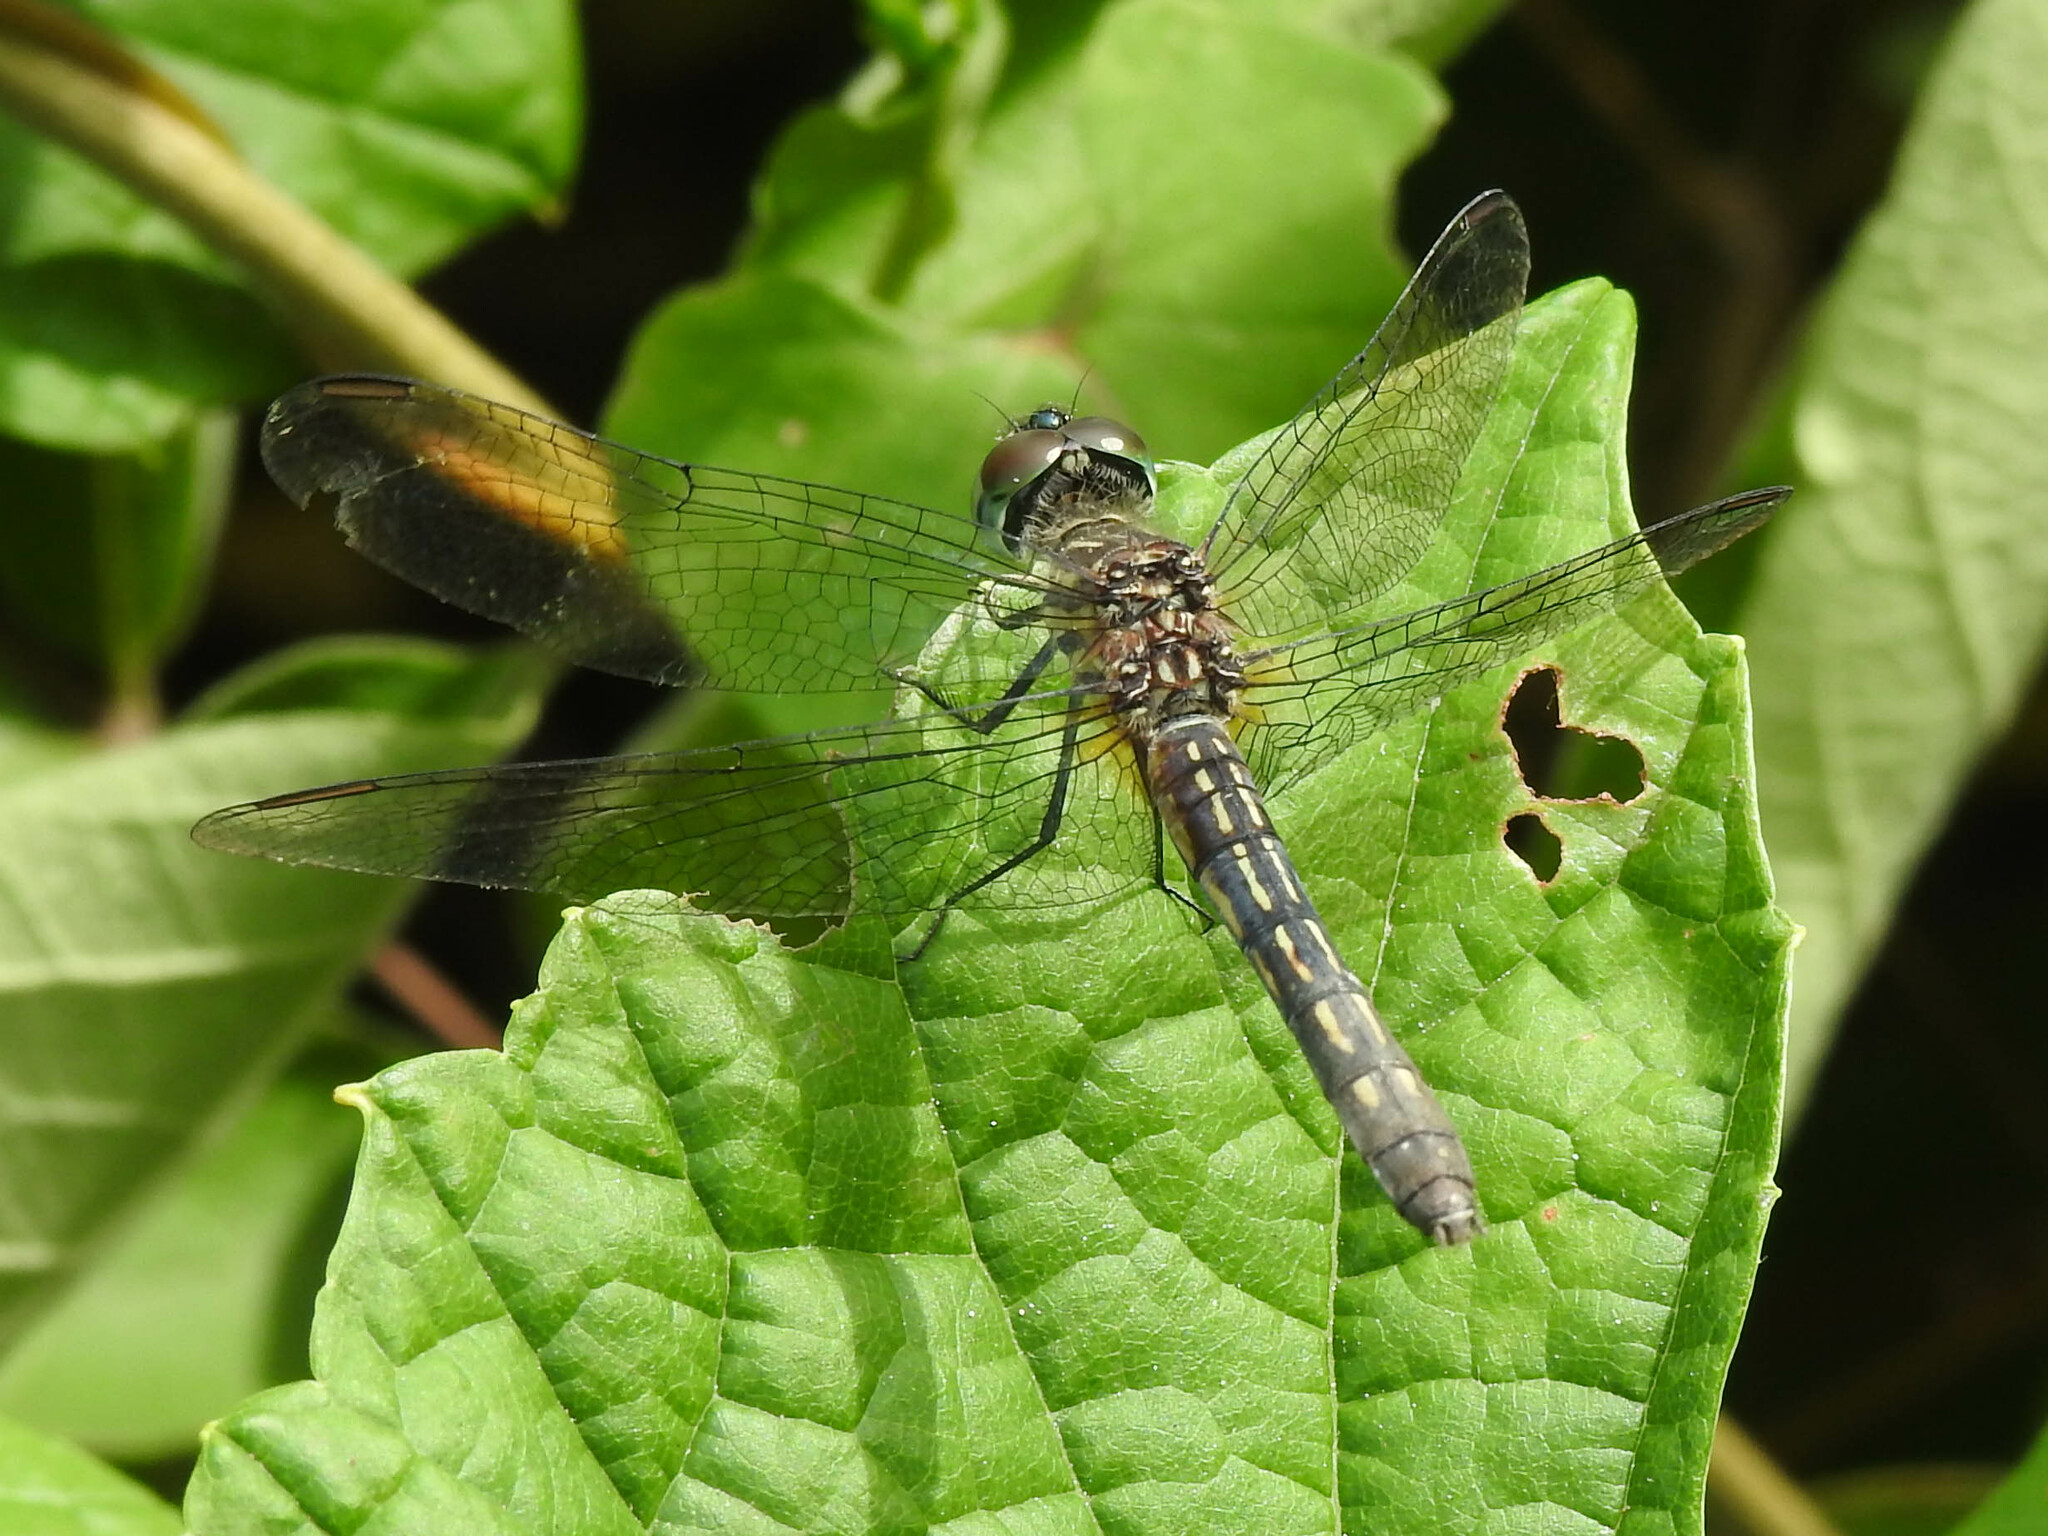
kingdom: Animalia
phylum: Arthropoda
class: Insecta
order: Odonata
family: Libellulidae
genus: Pachydiplax
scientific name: Pachydiplax longipennis
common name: Blue dasher
